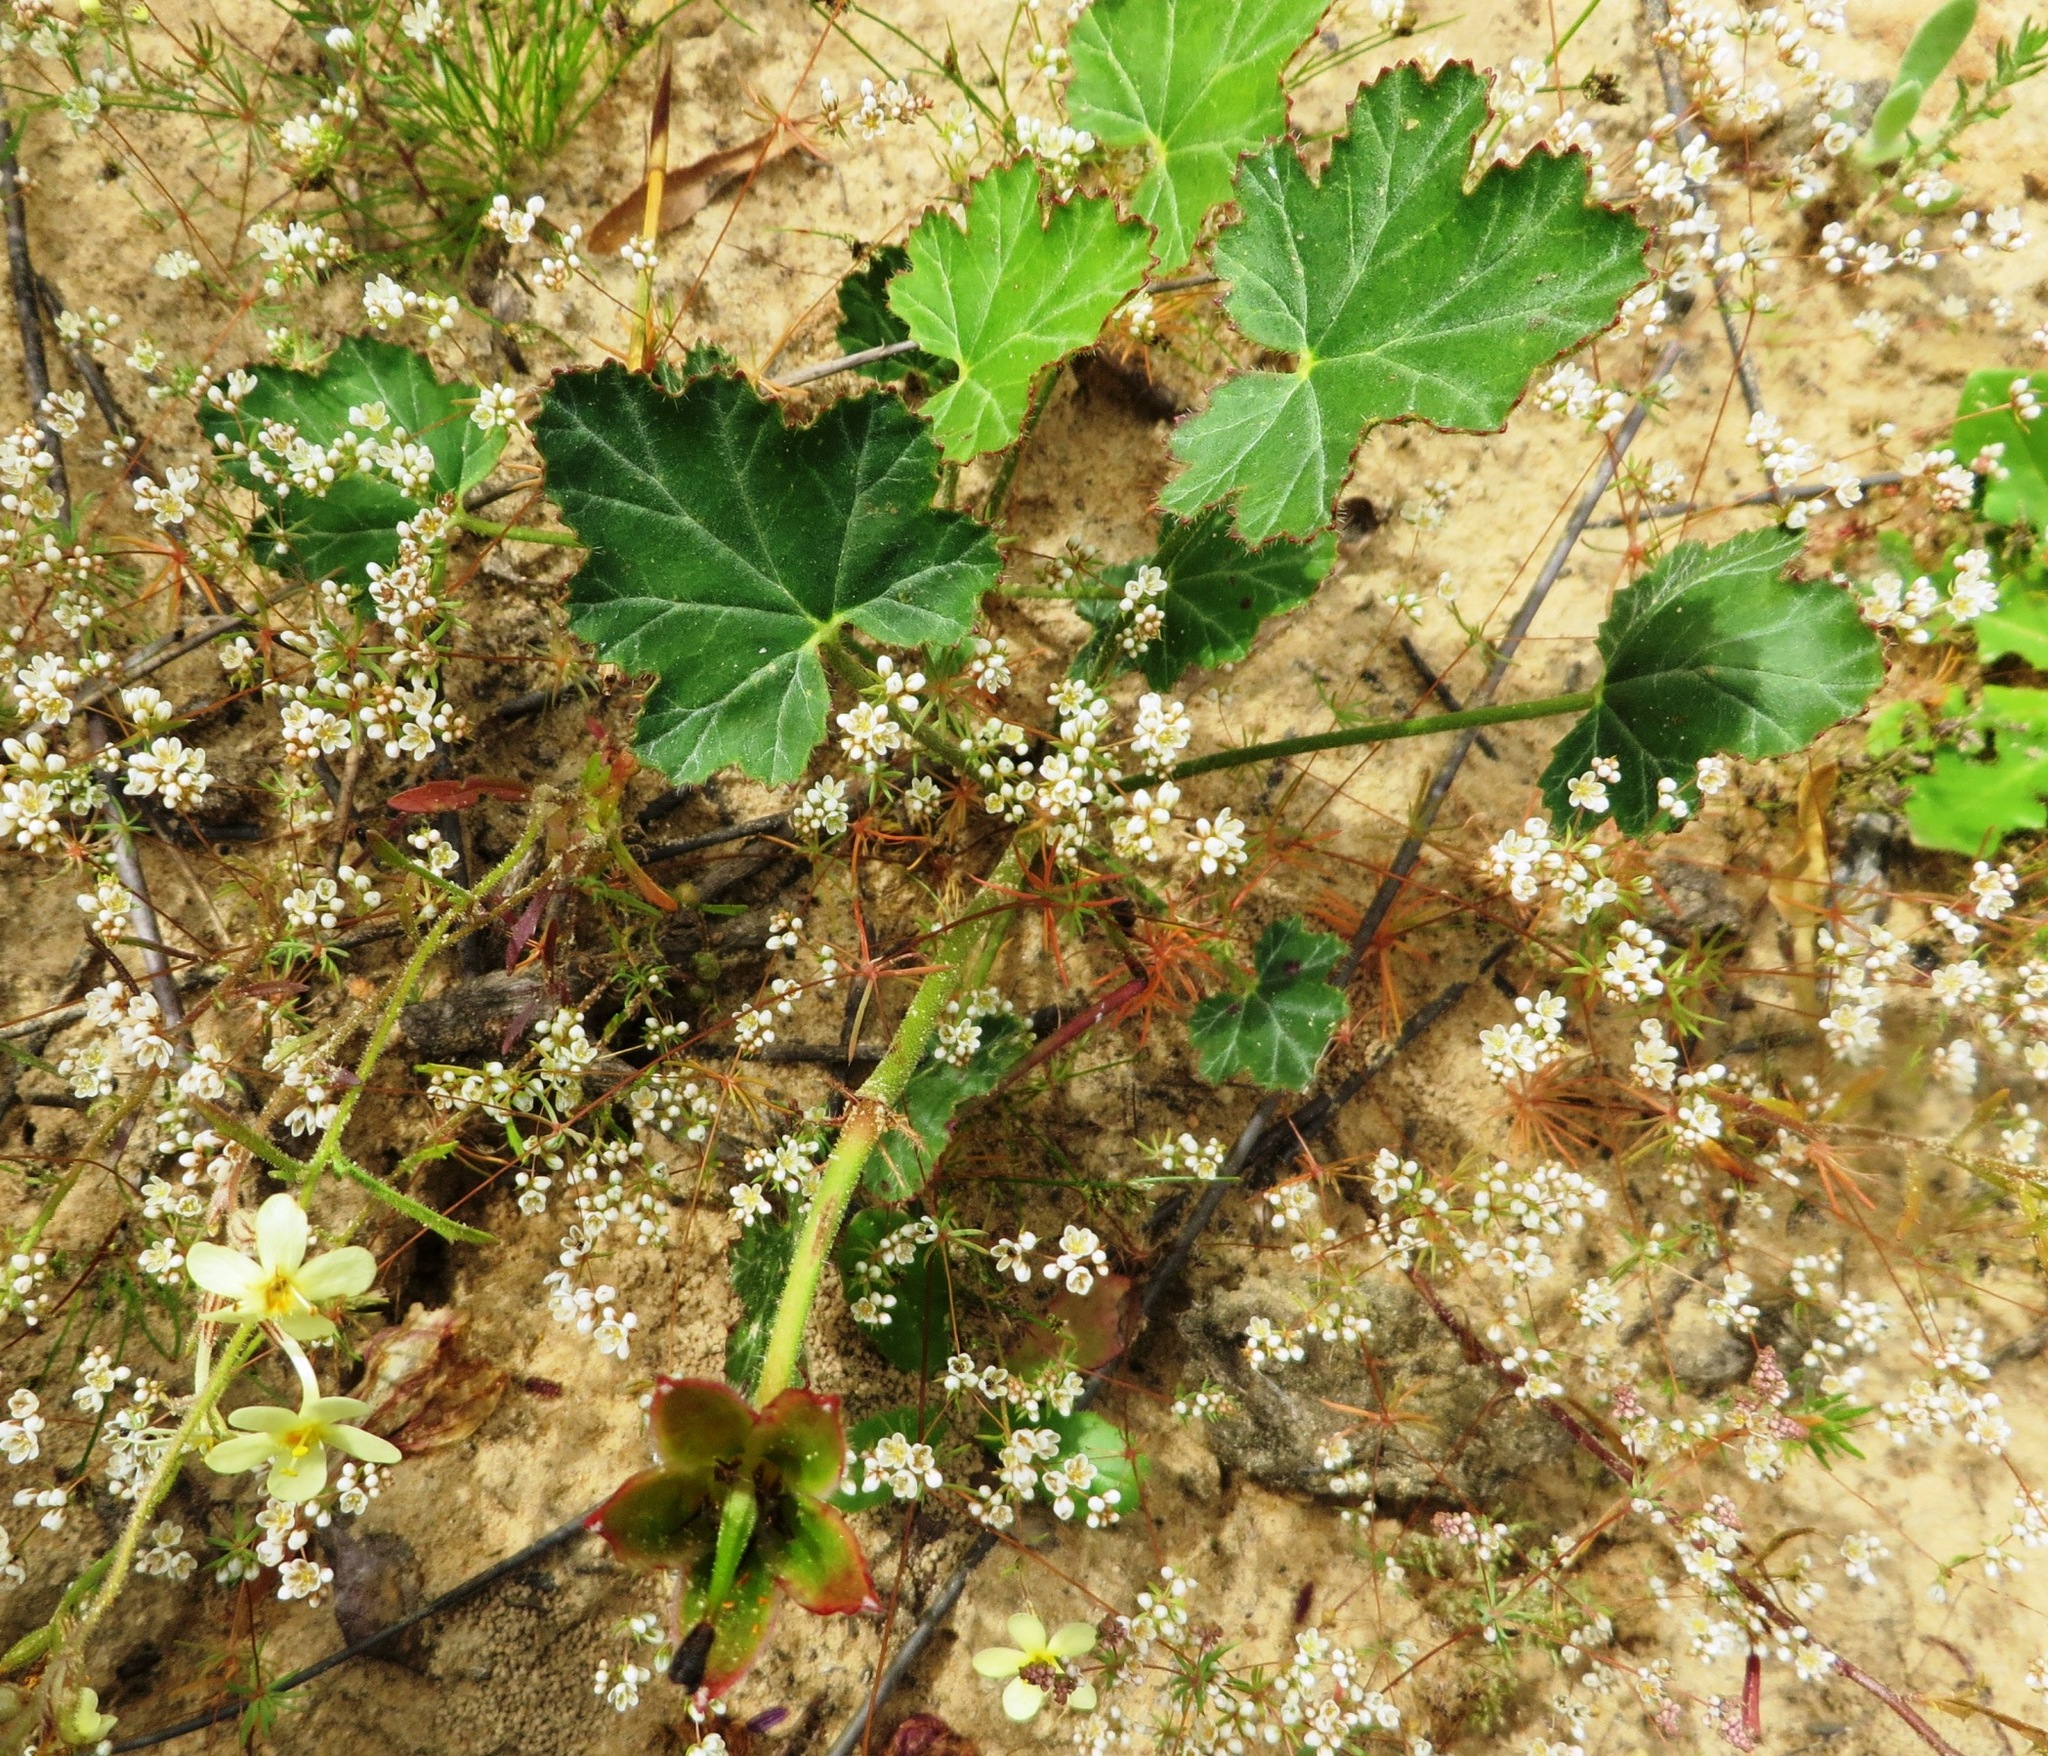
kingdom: Plantae
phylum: Tracheophyta
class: Magnoliopsida
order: Geraniales
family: Geraniaceae
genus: Monsonia
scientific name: Monsonia speciosa
